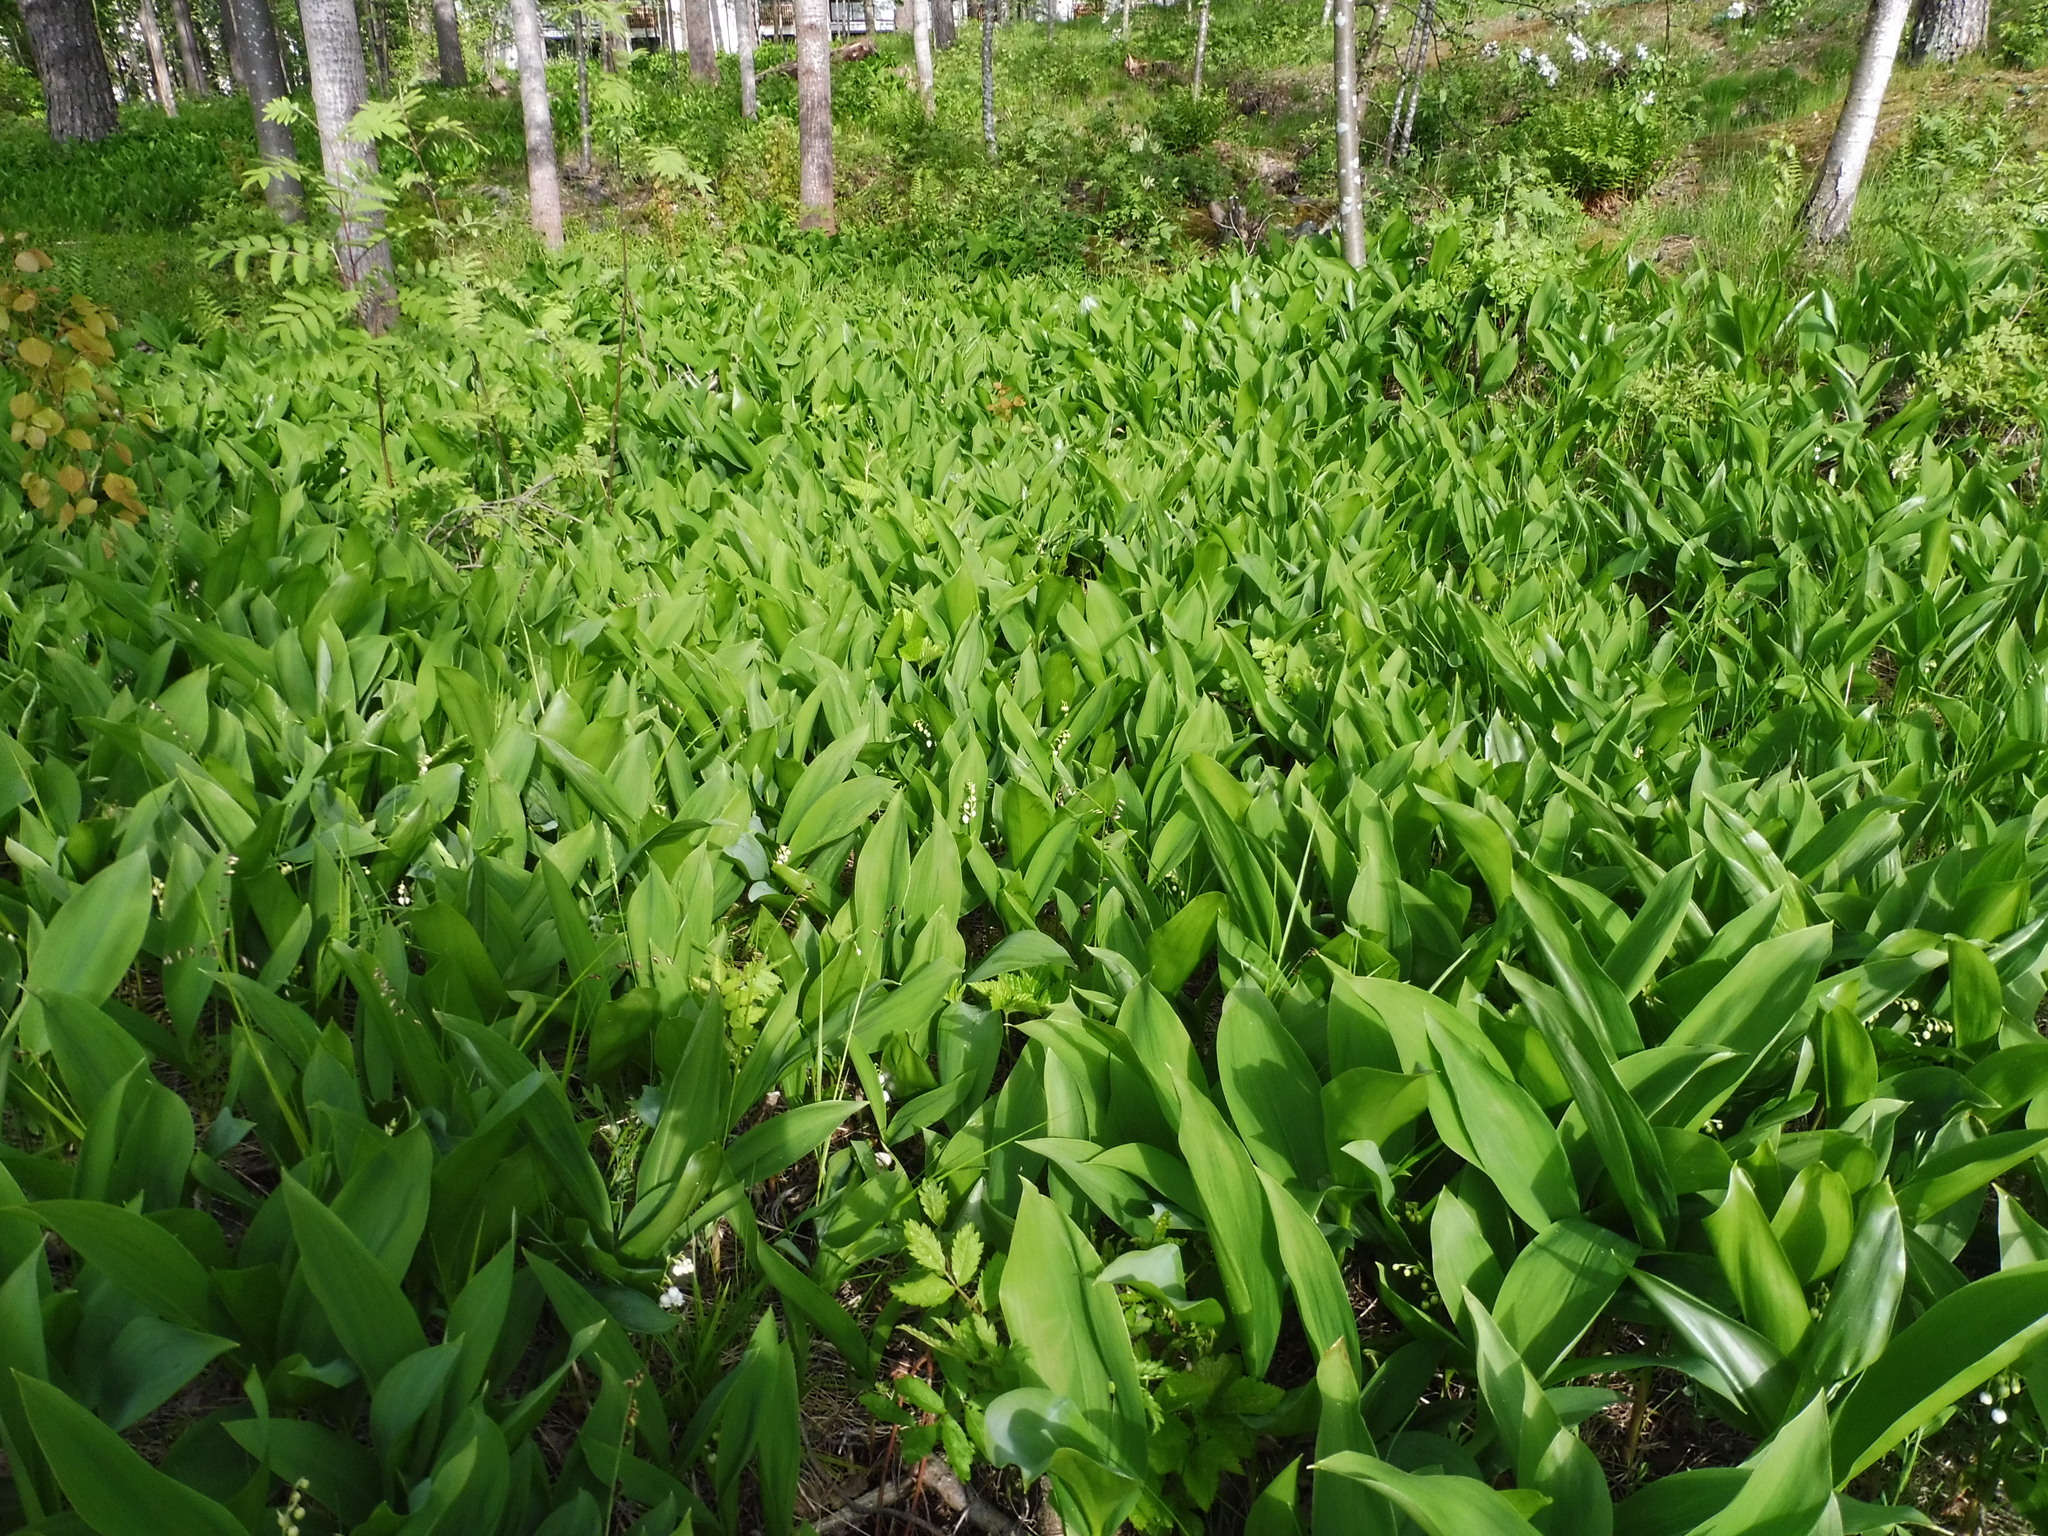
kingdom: Plantae
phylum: Tracheophyta
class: Liliopsida
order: Asparagales
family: Asparagaceae
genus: Convallaria
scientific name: Convallaria majalis
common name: Lily-of-the-valley
